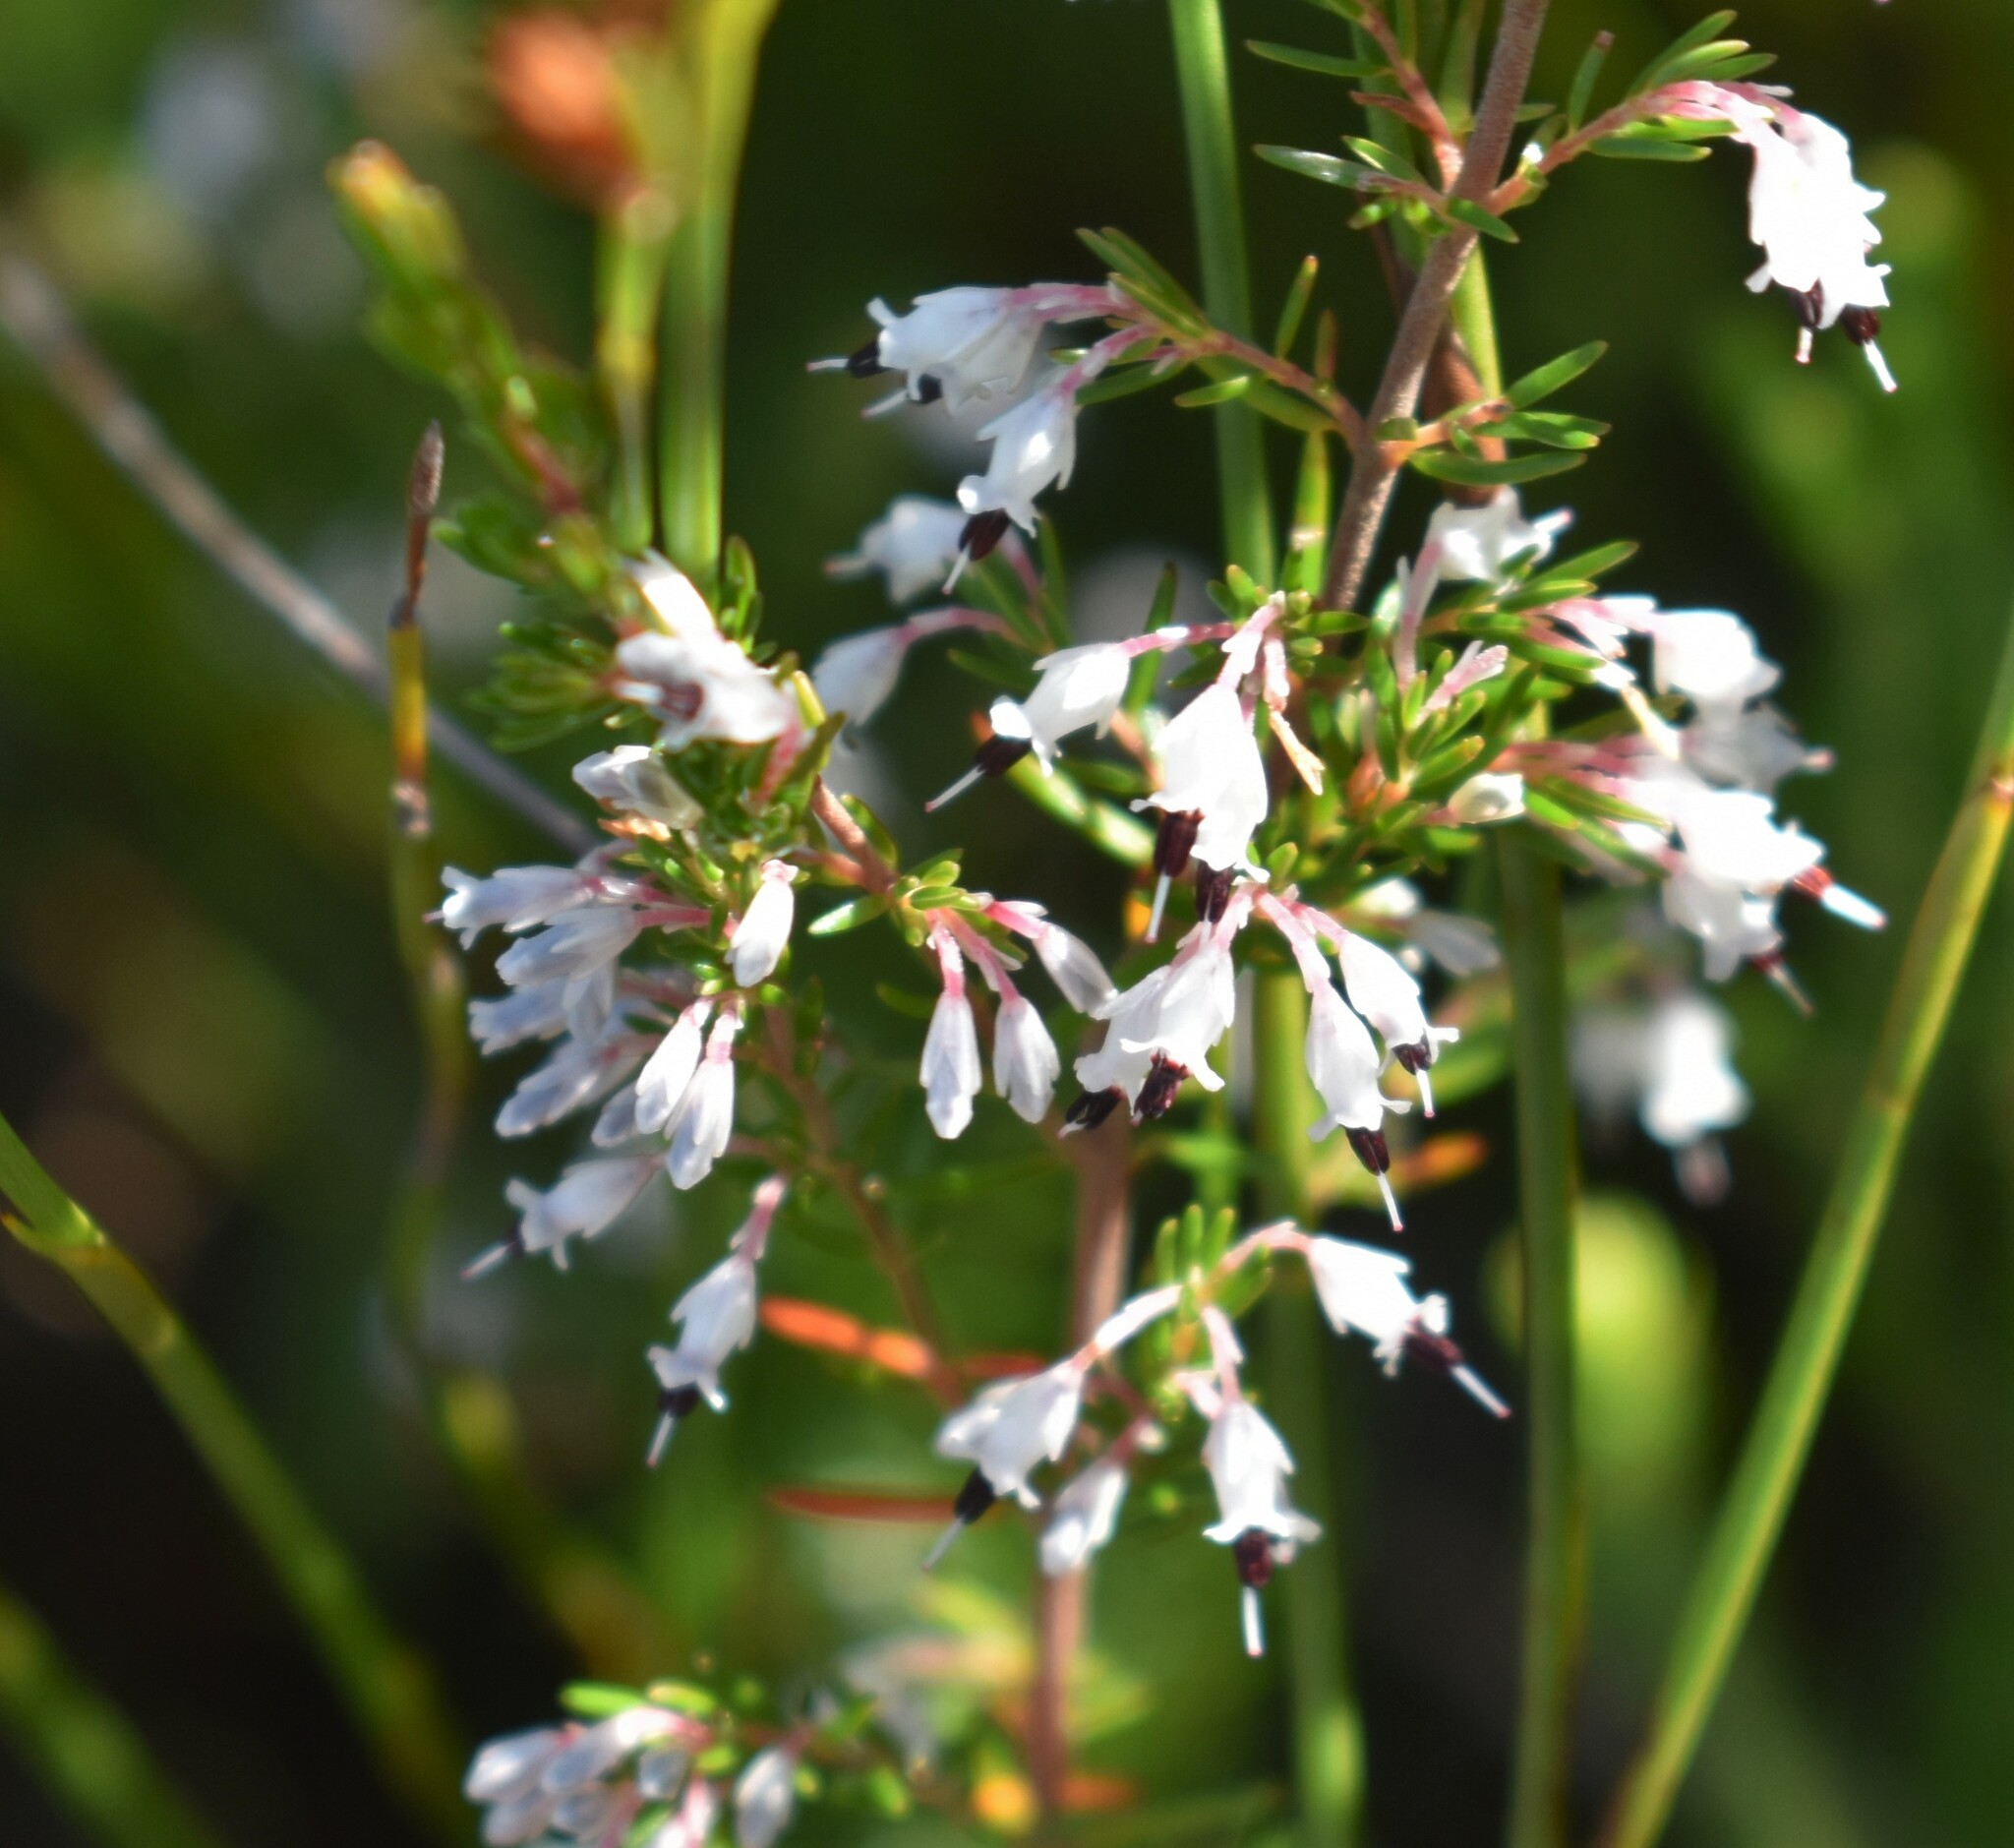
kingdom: Plantae
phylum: Tracheophyta
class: Magnoliopsida
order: Ericales
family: Ericaceae
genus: Erica
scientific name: Erica fuscescens
